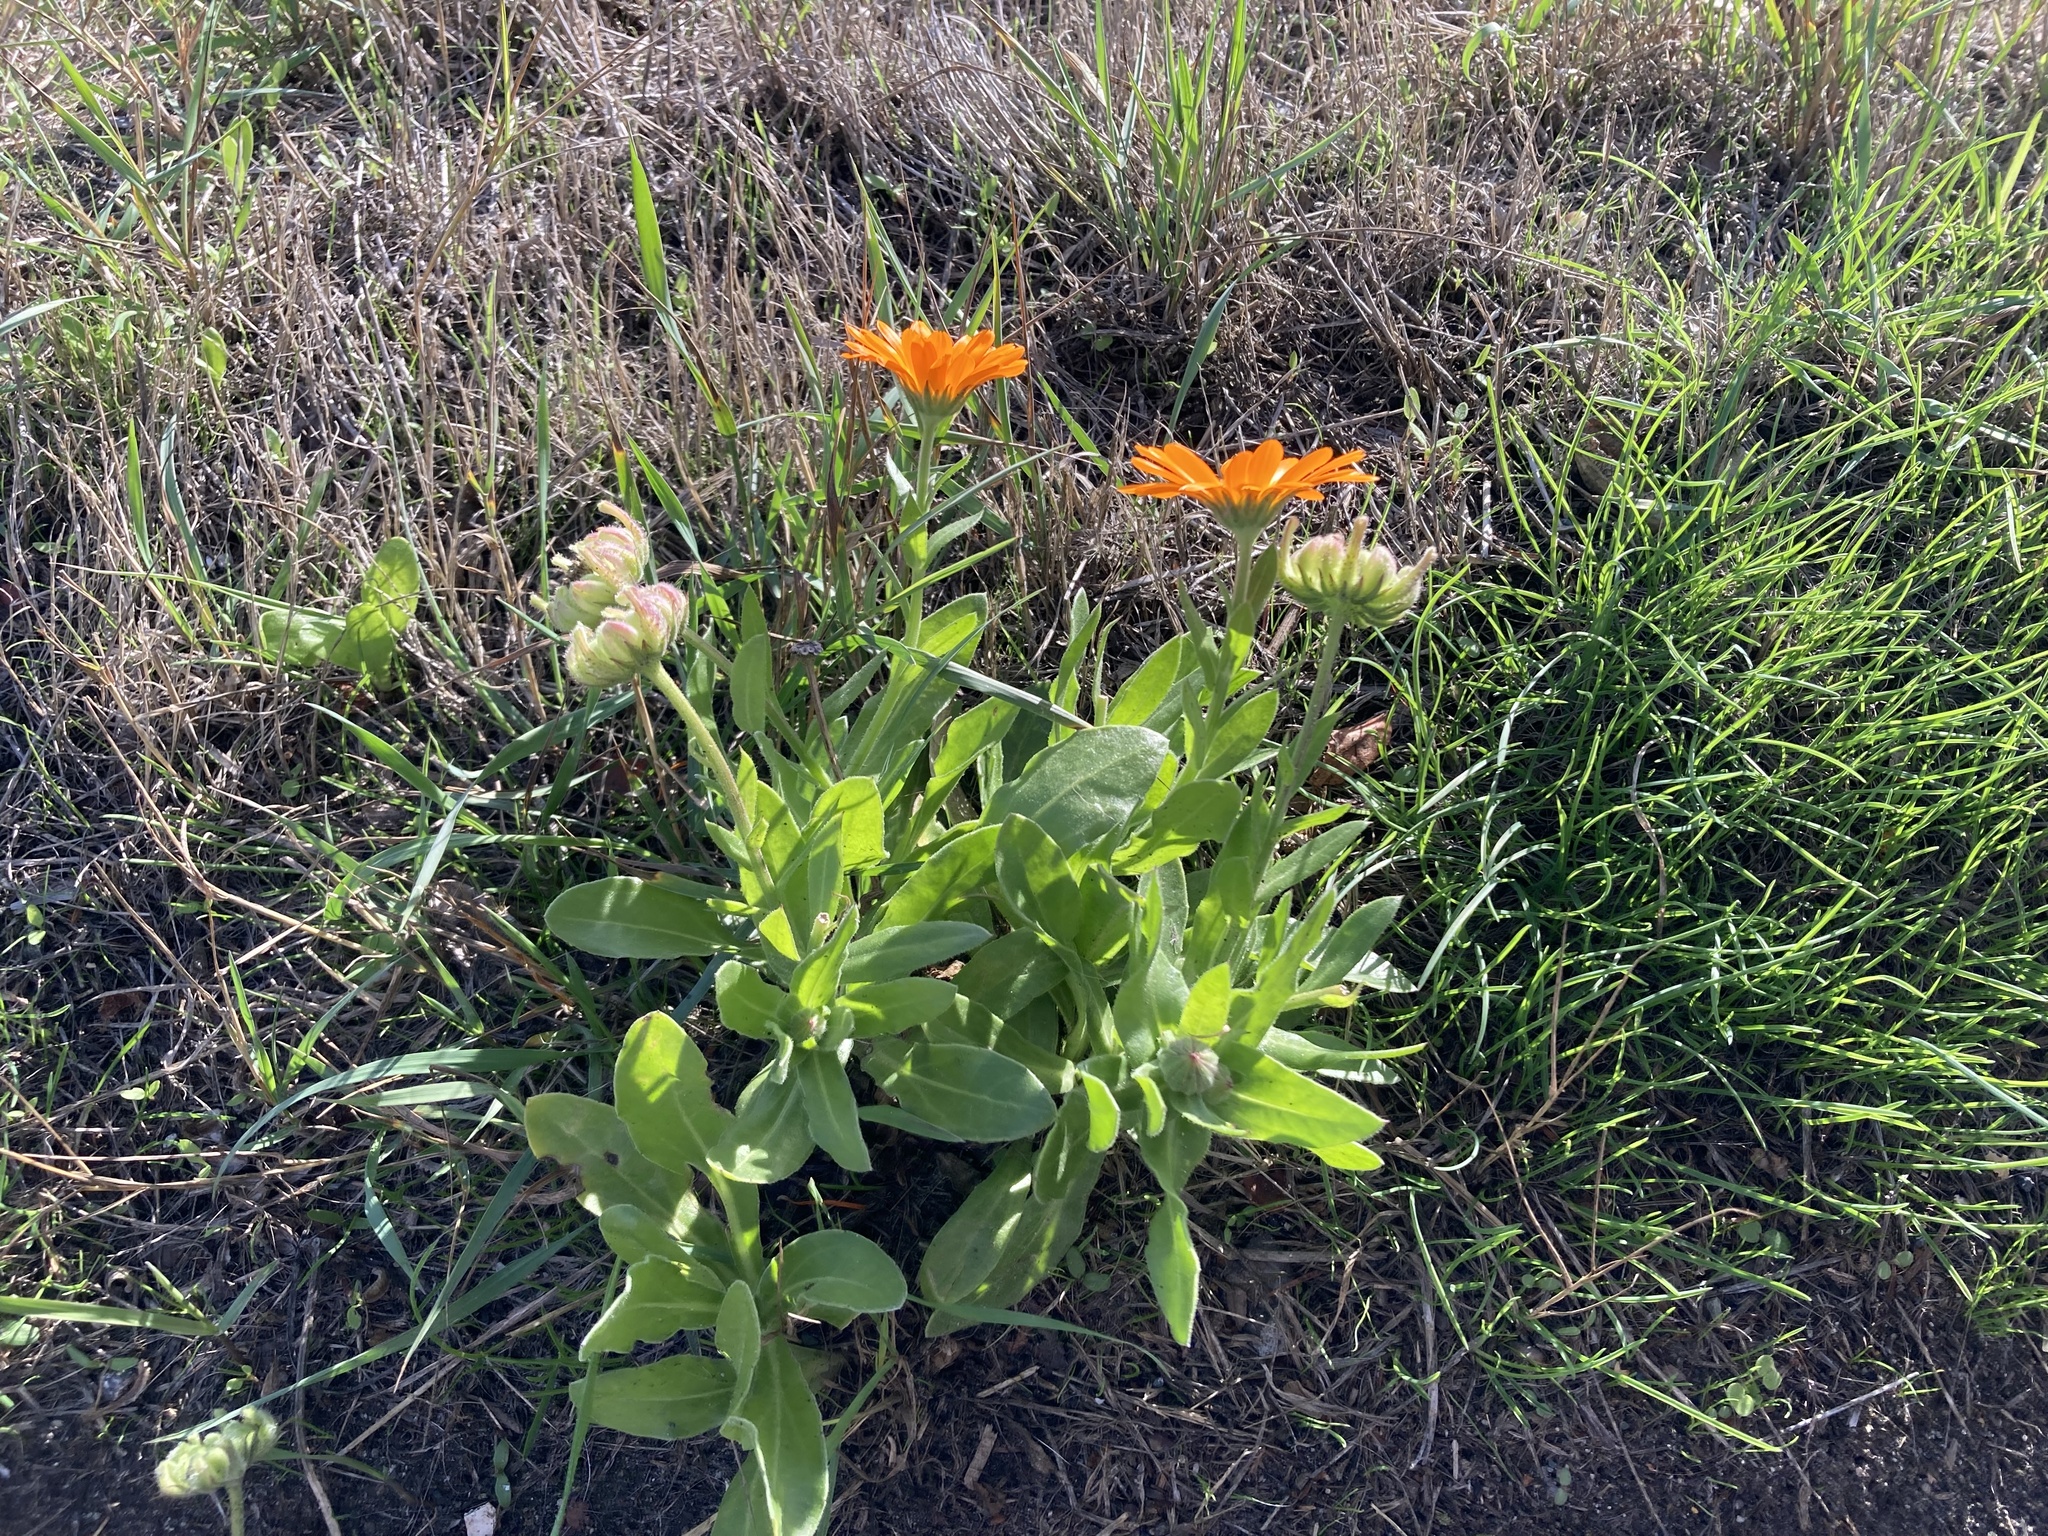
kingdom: Plantae
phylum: Tracheophyta
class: Magnoliopsida
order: Asterales
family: Asteraceae
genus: Calendula
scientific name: Calendula officinalis
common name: Pot marigold
